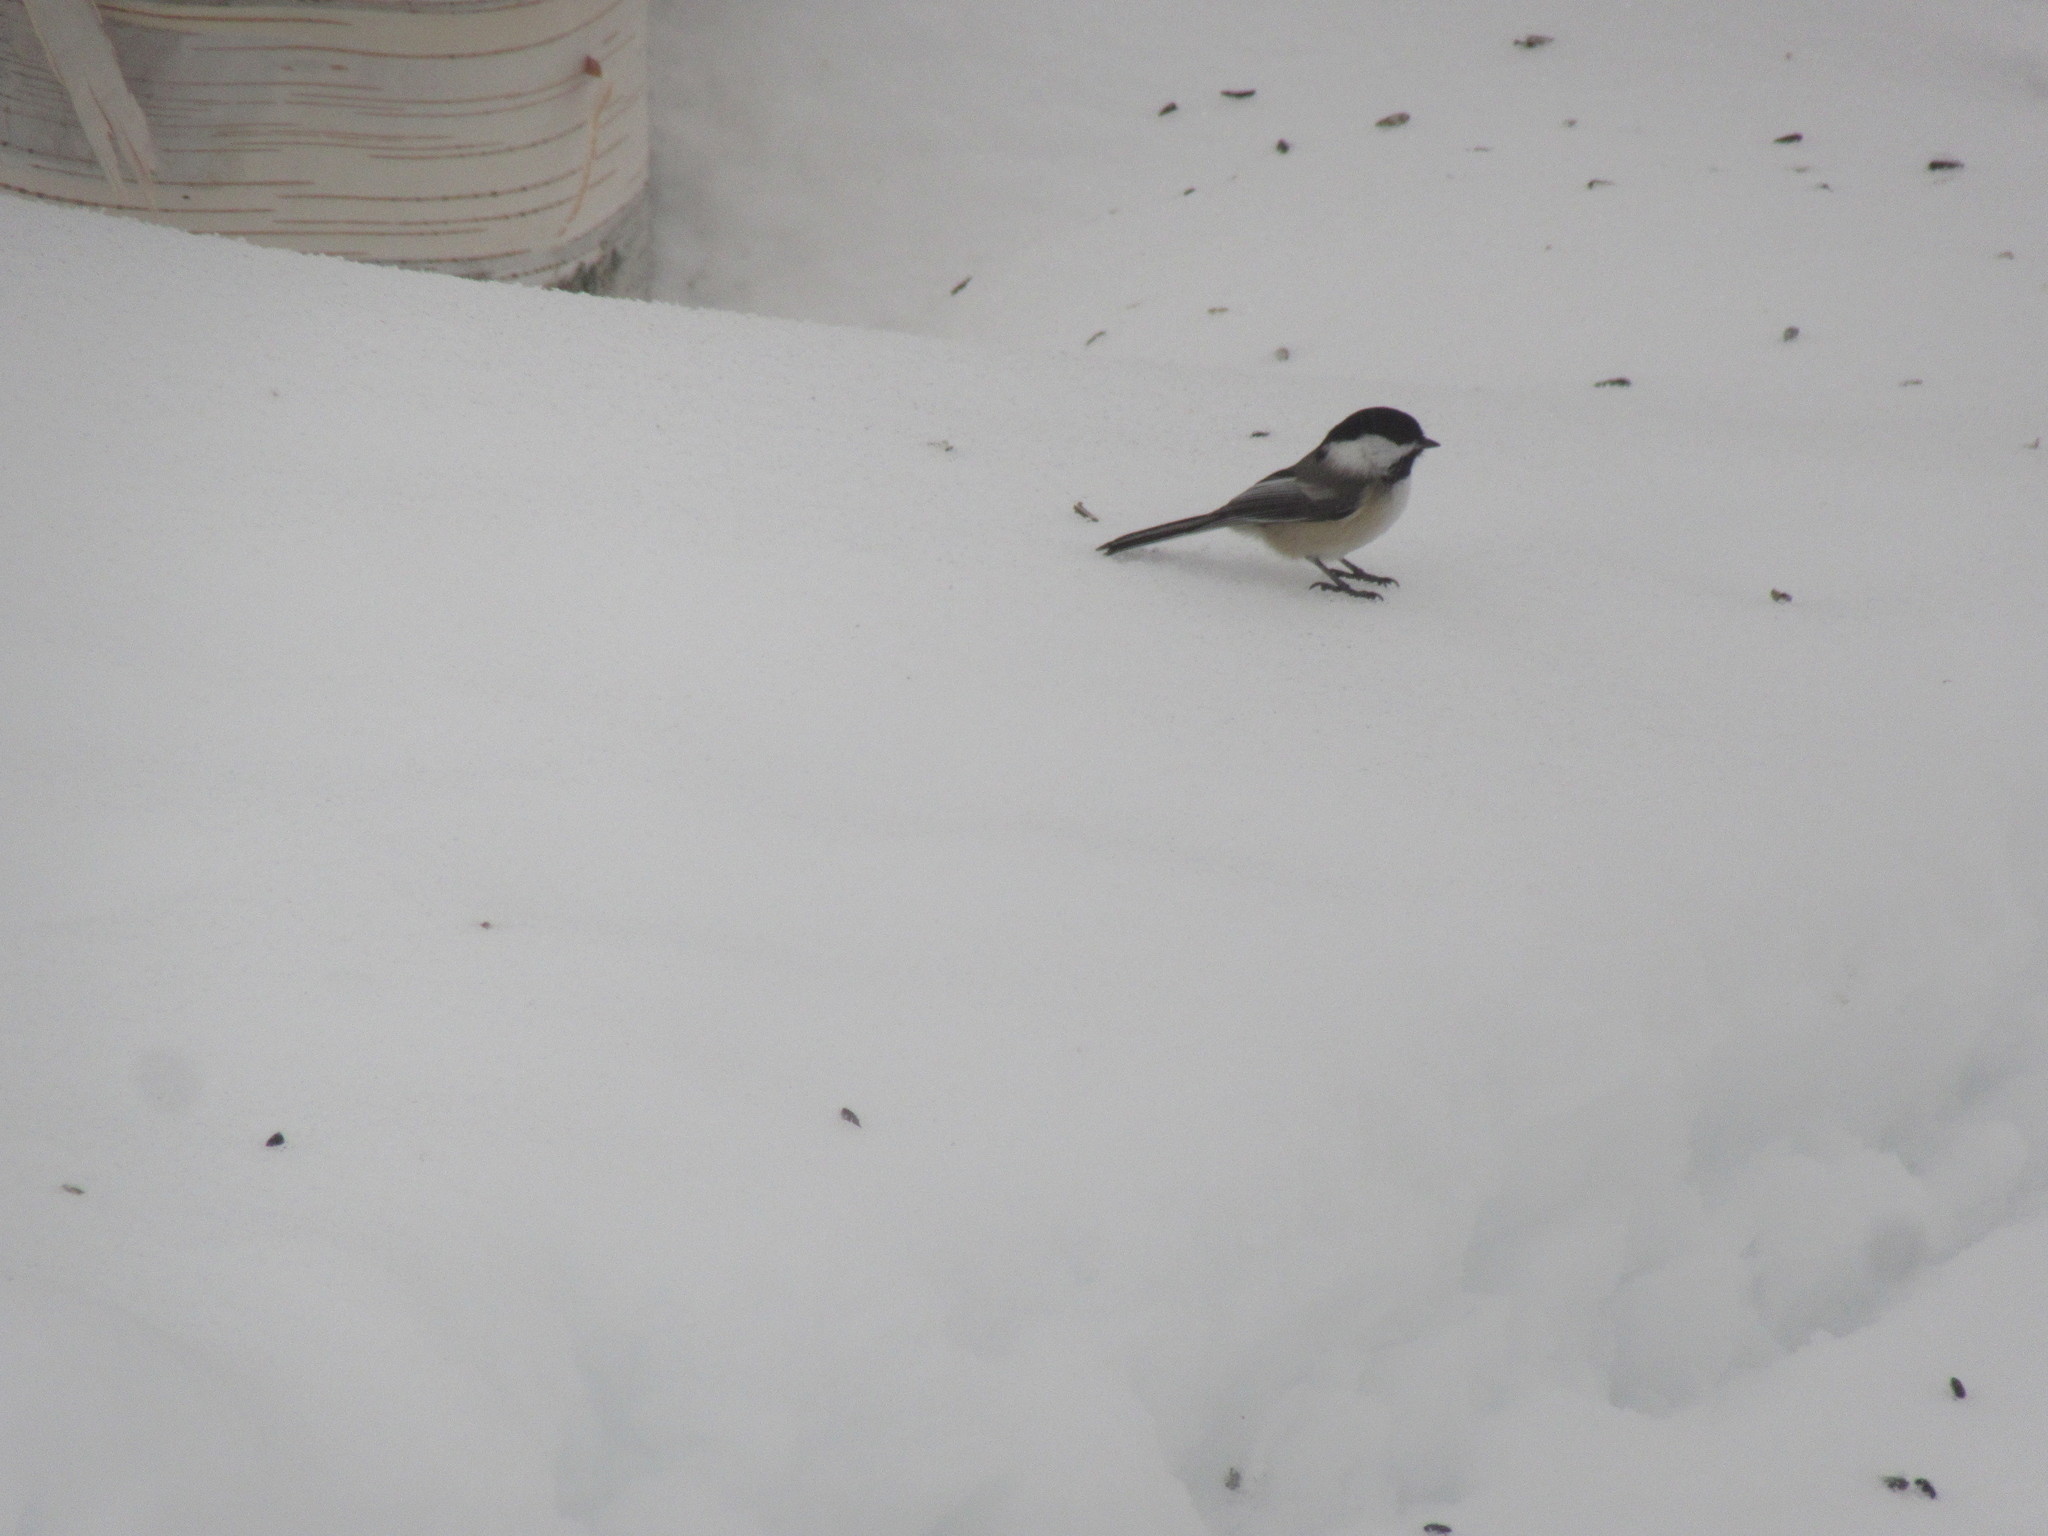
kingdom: Animalia
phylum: Chordata
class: Aves
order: Passeriformes
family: Paridae
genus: Poecile
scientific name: Poecile atricapillus
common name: Black-capped chickadee
